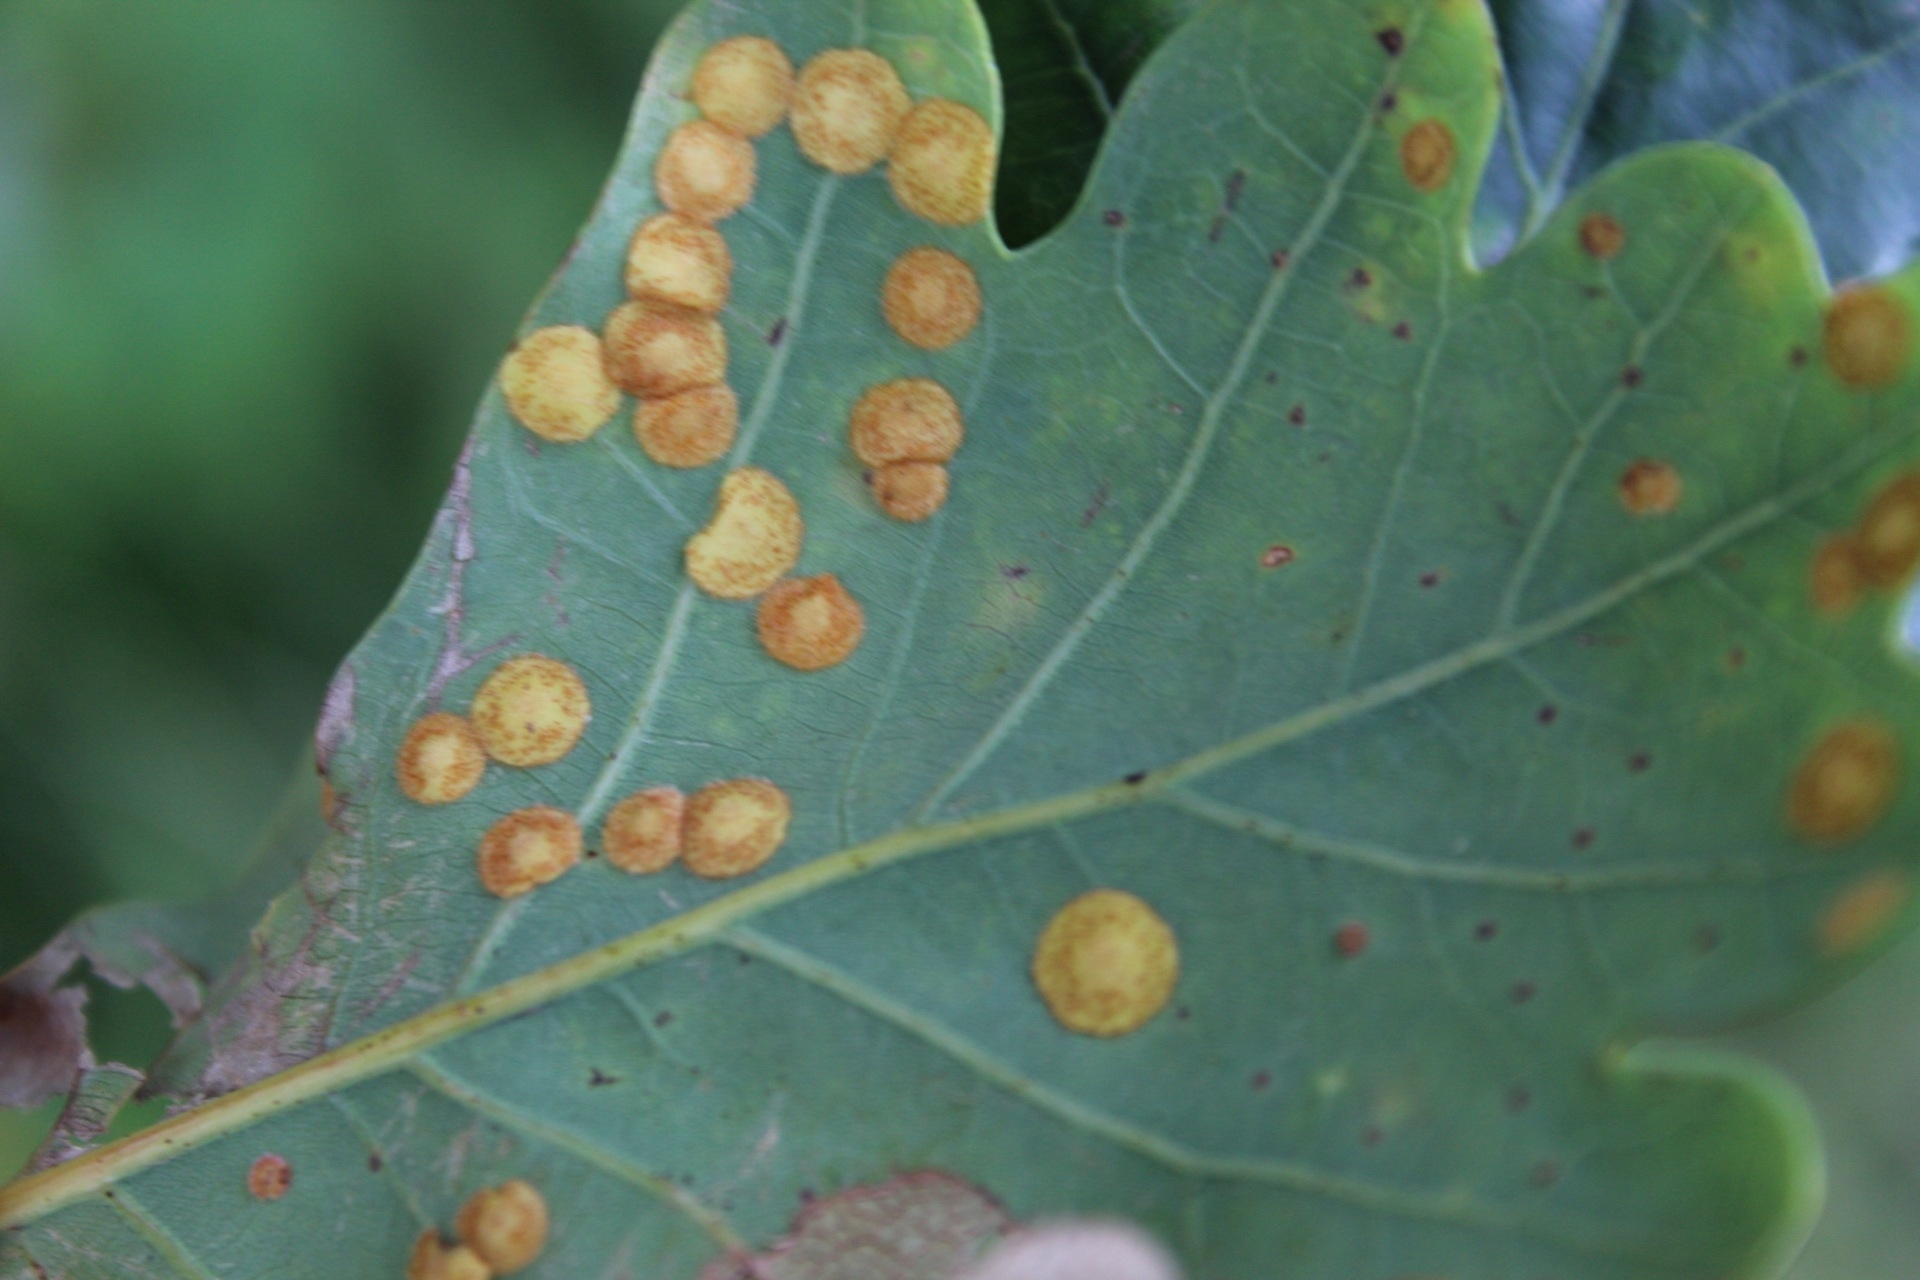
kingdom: Animalia
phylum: Arthropoda
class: Insecta
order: Hymenoptera
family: Cynipidae
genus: Neuroterus
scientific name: Neuroterus quercusbaccarum
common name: Common spangle gall
